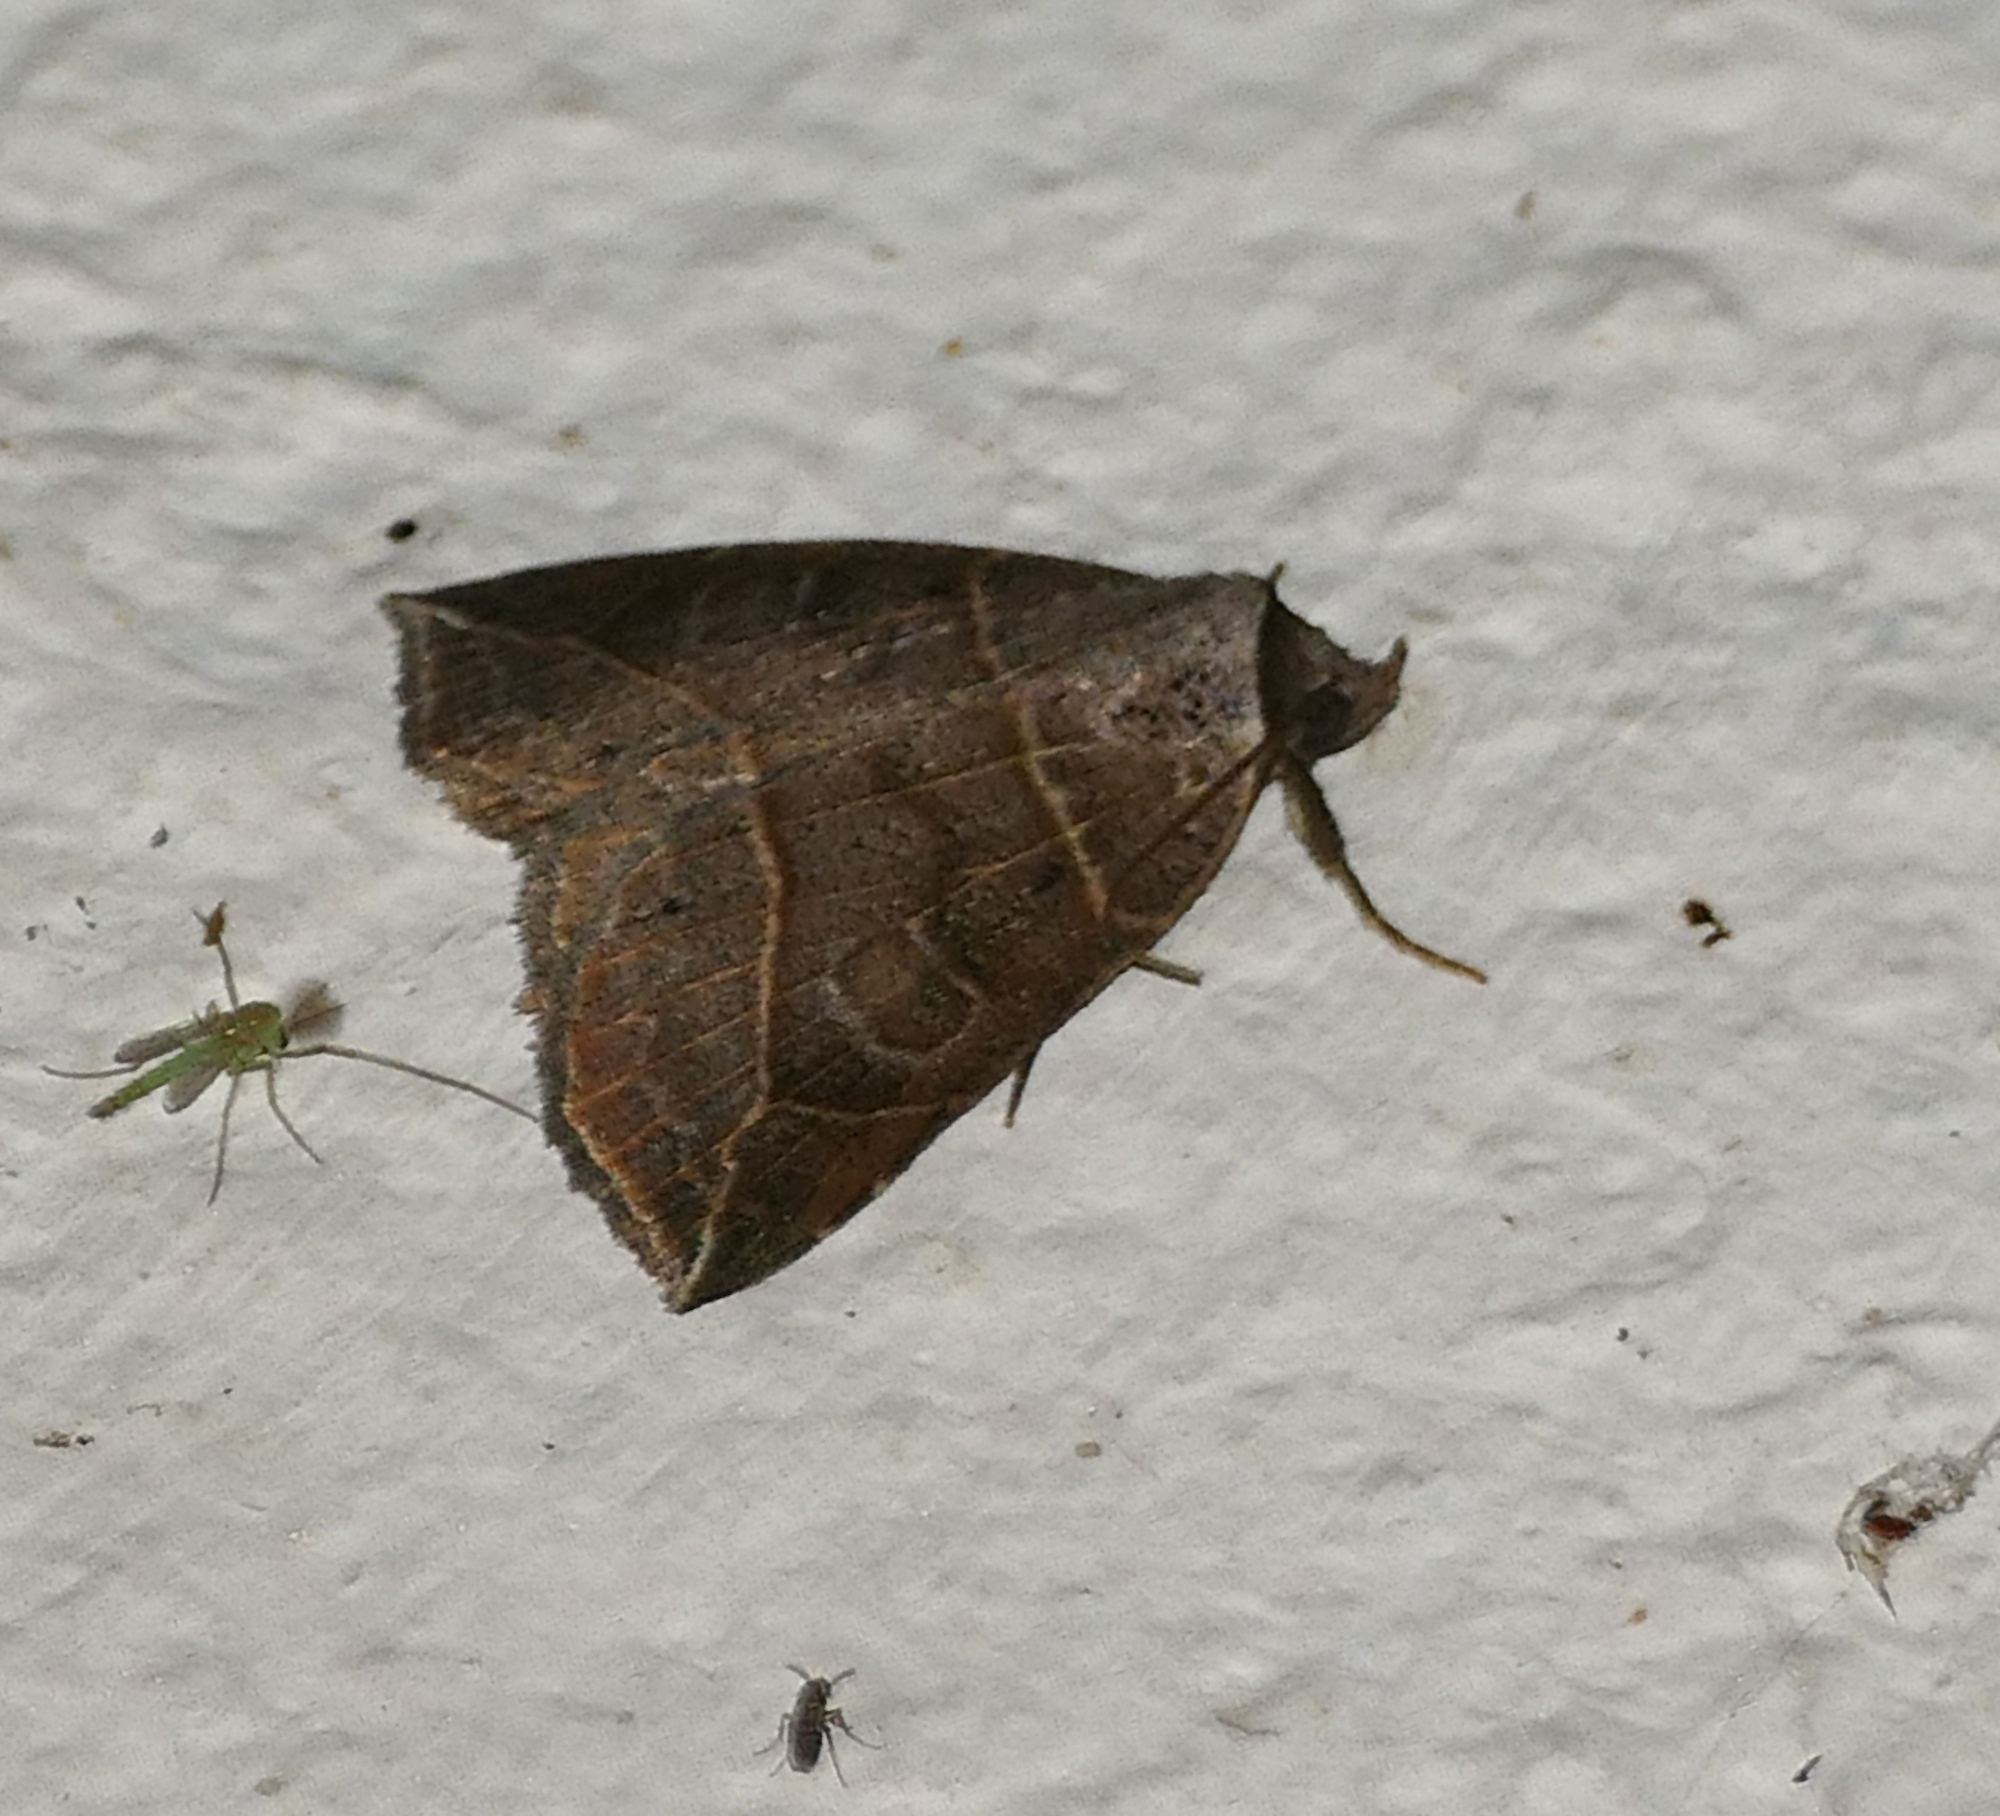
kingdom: Animalia
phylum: Arthropoda
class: Insecta
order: Lepidoptera
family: Erebidae
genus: Isogona
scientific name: Isogona tenuis
